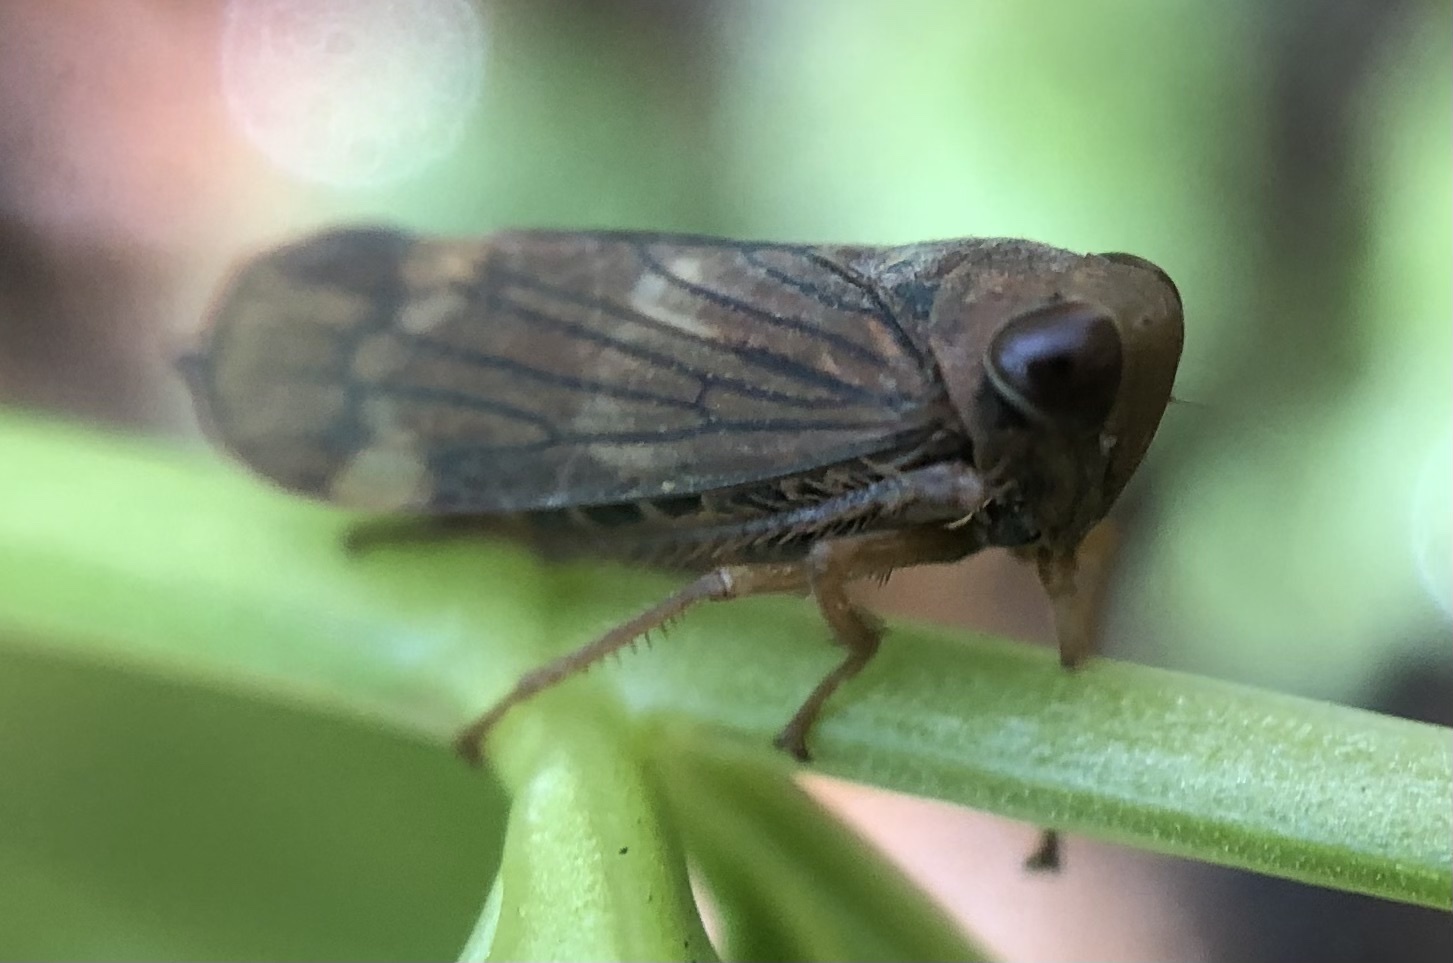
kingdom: Animalia
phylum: Arthropoda
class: Insecta
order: Hemiptera
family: Cicadellidae
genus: Jikradia
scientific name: Jikradia olitoria
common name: Coppery leafhopper
